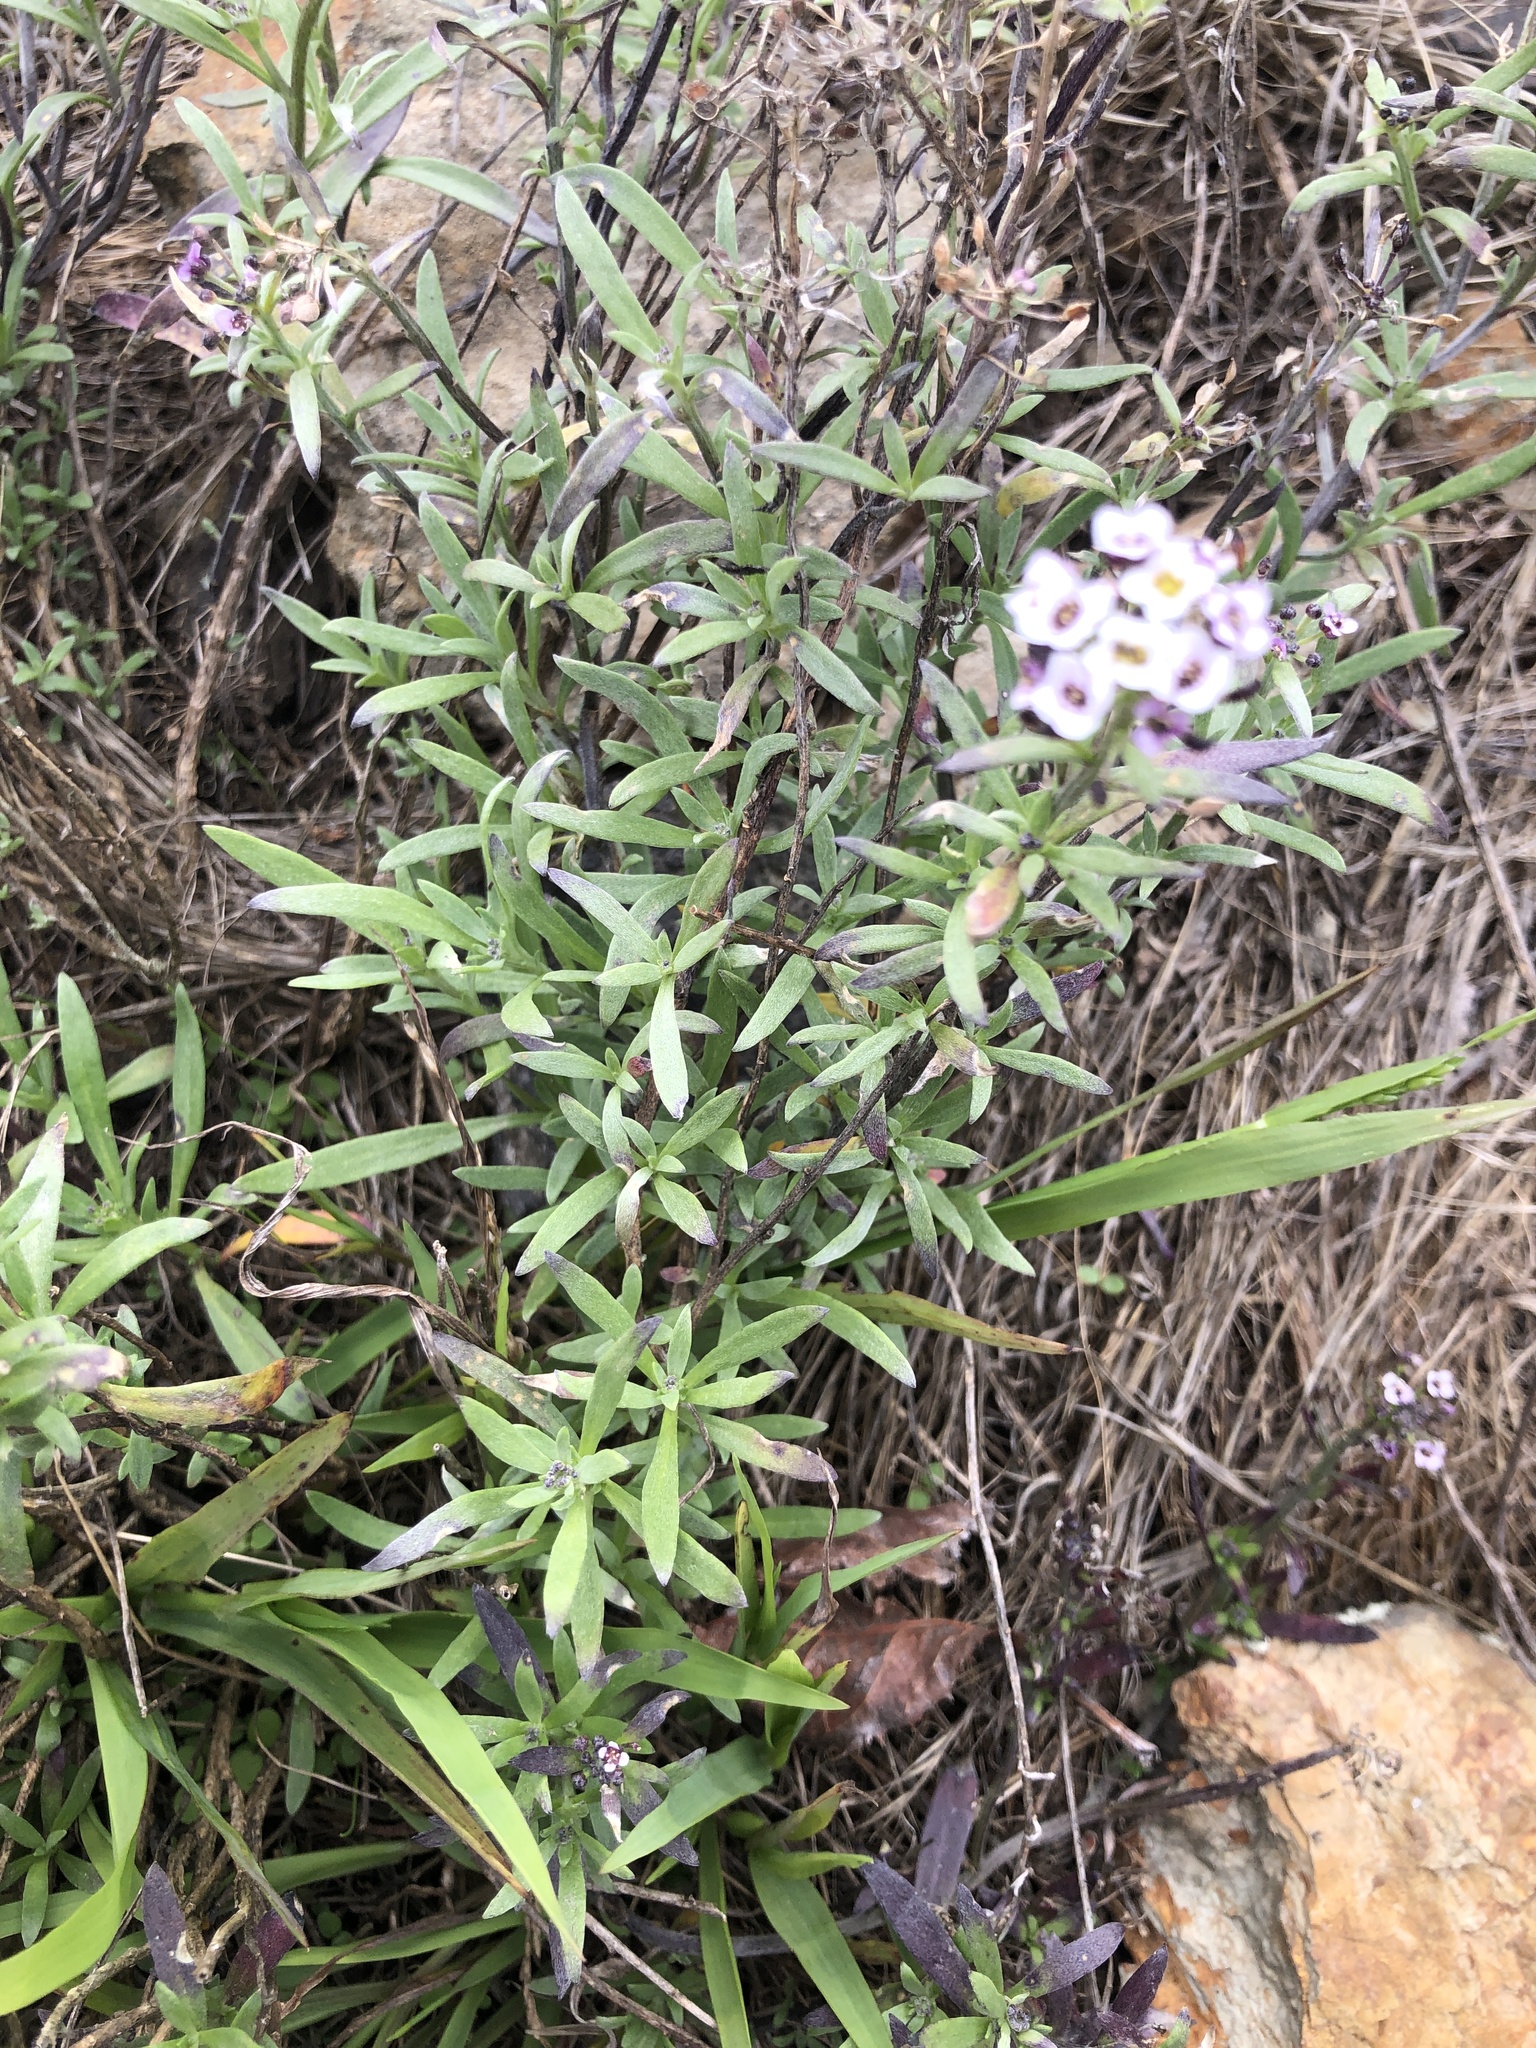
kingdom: Plantae
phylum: Tracheophyta
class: Magnoliopsida
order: Brassicales
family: Brassicaceae
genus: Lobularia
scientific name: Lobularia maritima
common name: Sweet alison
